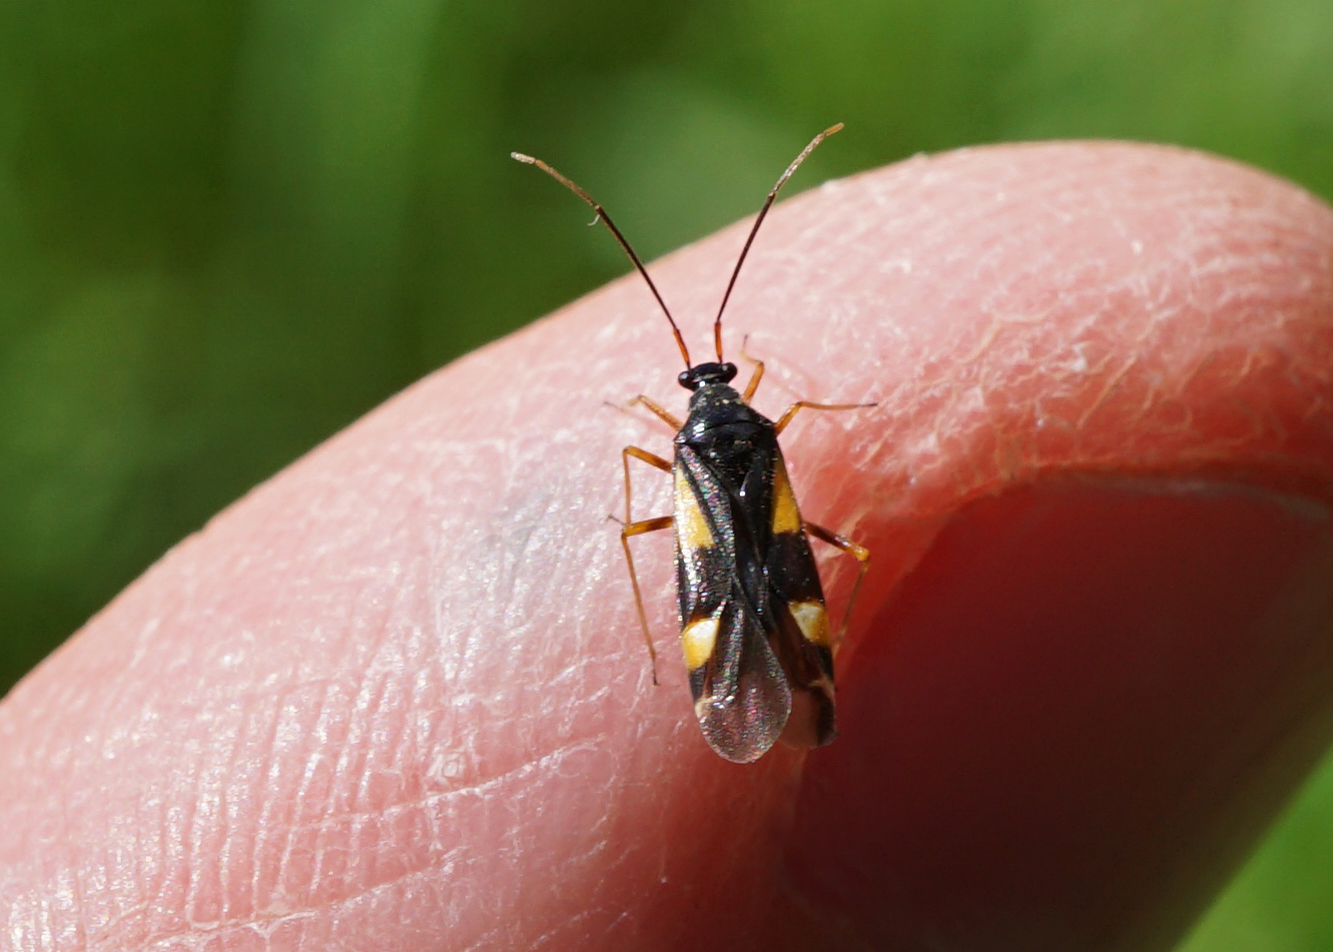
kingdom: Animalia
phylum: Arthropoda
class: Insecta
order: Hemiptera
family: Miridae
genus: Dryophilocoris
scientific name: Dryophilocoris flavoquadrimaculatus
